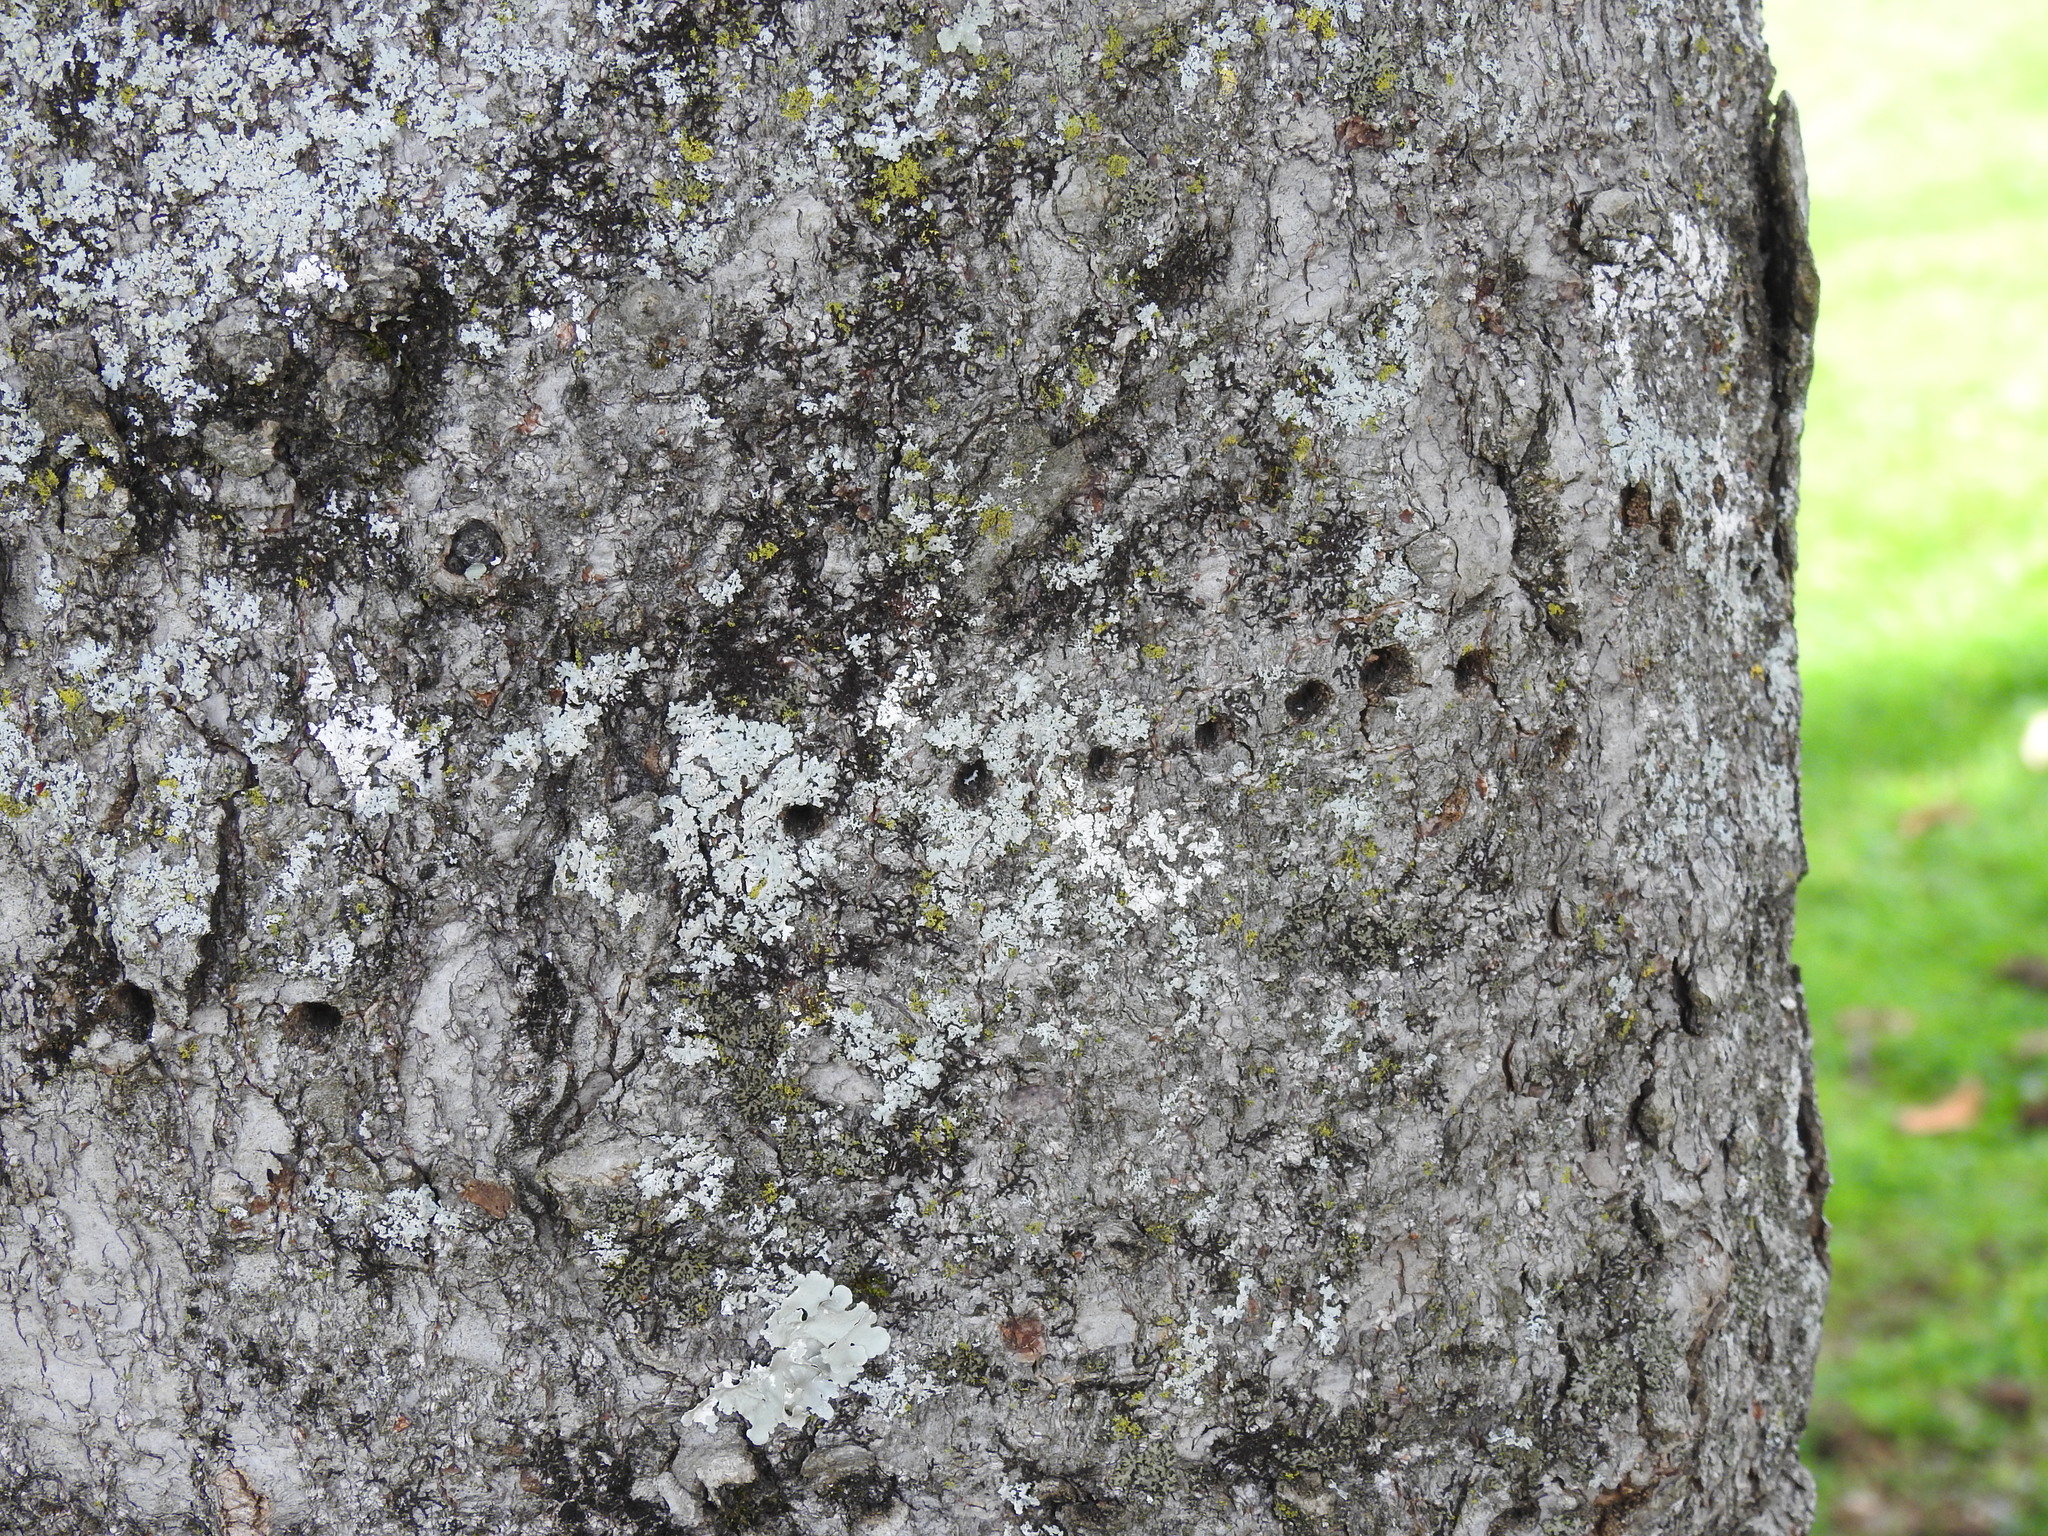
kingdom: Animalia
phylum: Chordata
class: Aves
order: Piciformes
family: Picidae
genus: Sphyrapicus
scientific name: Sphyrapicus varius
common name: Yellow-bellied sapsucker
